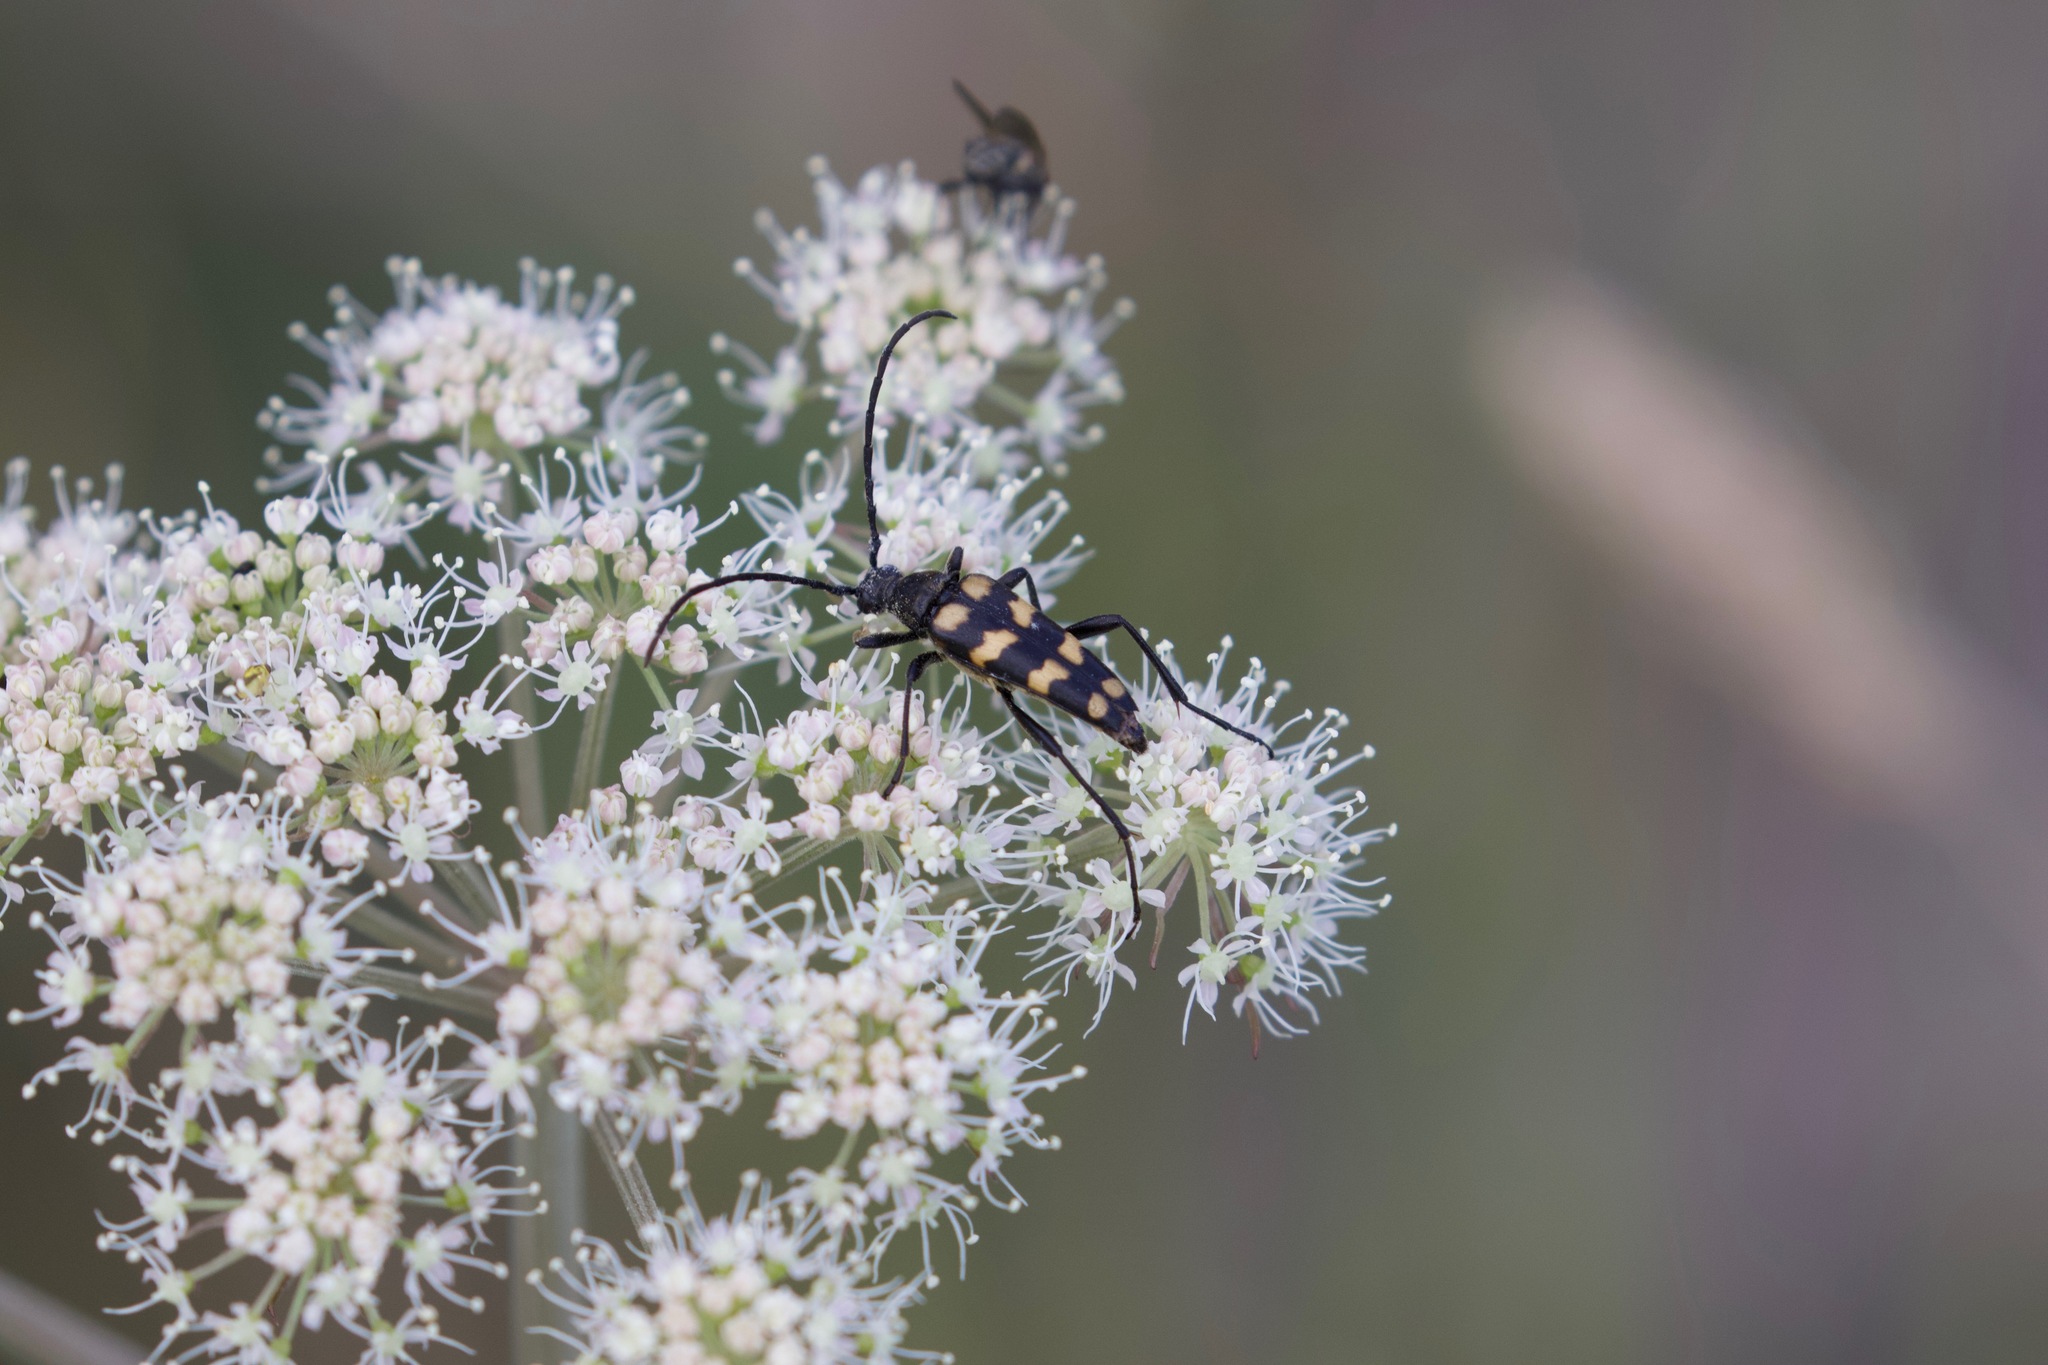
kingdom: Animalia
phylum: Arthropoda
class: Insecta
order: Coleoptera
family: Cerambycidae
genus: Leptura
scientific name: Leptura quadrifasciata
